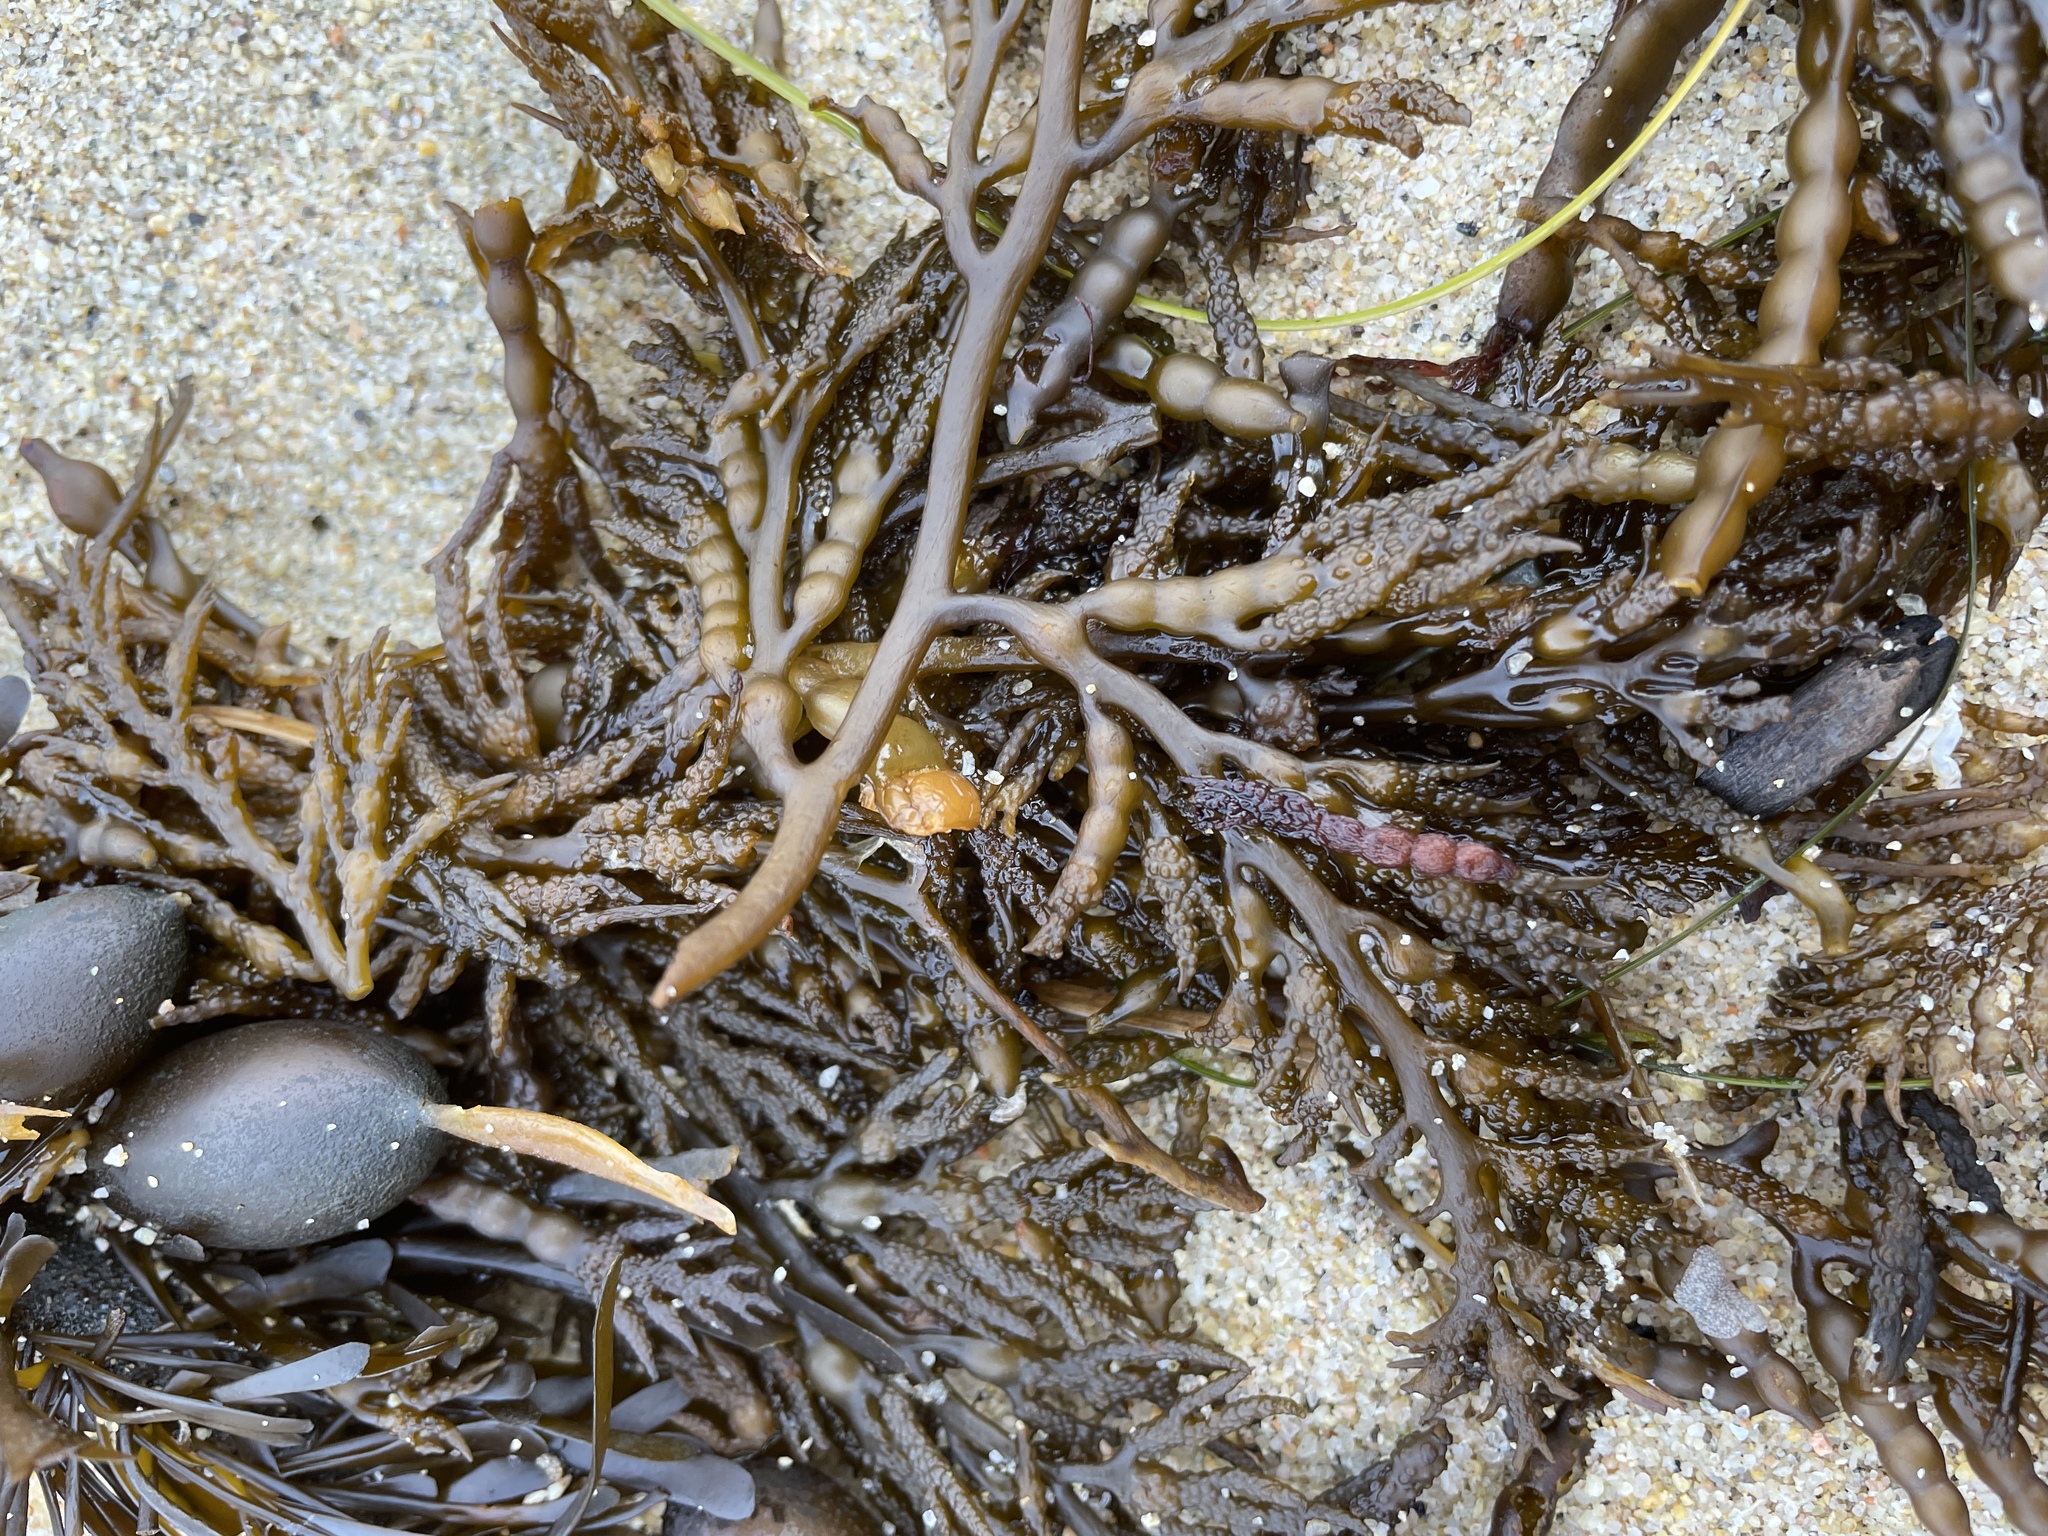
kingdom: Chromista
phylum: Ochrophyta
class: Phaeophyceae
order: Fucales
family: Sargassaceae
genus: Stephanocystis
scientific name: Stephanocystis
